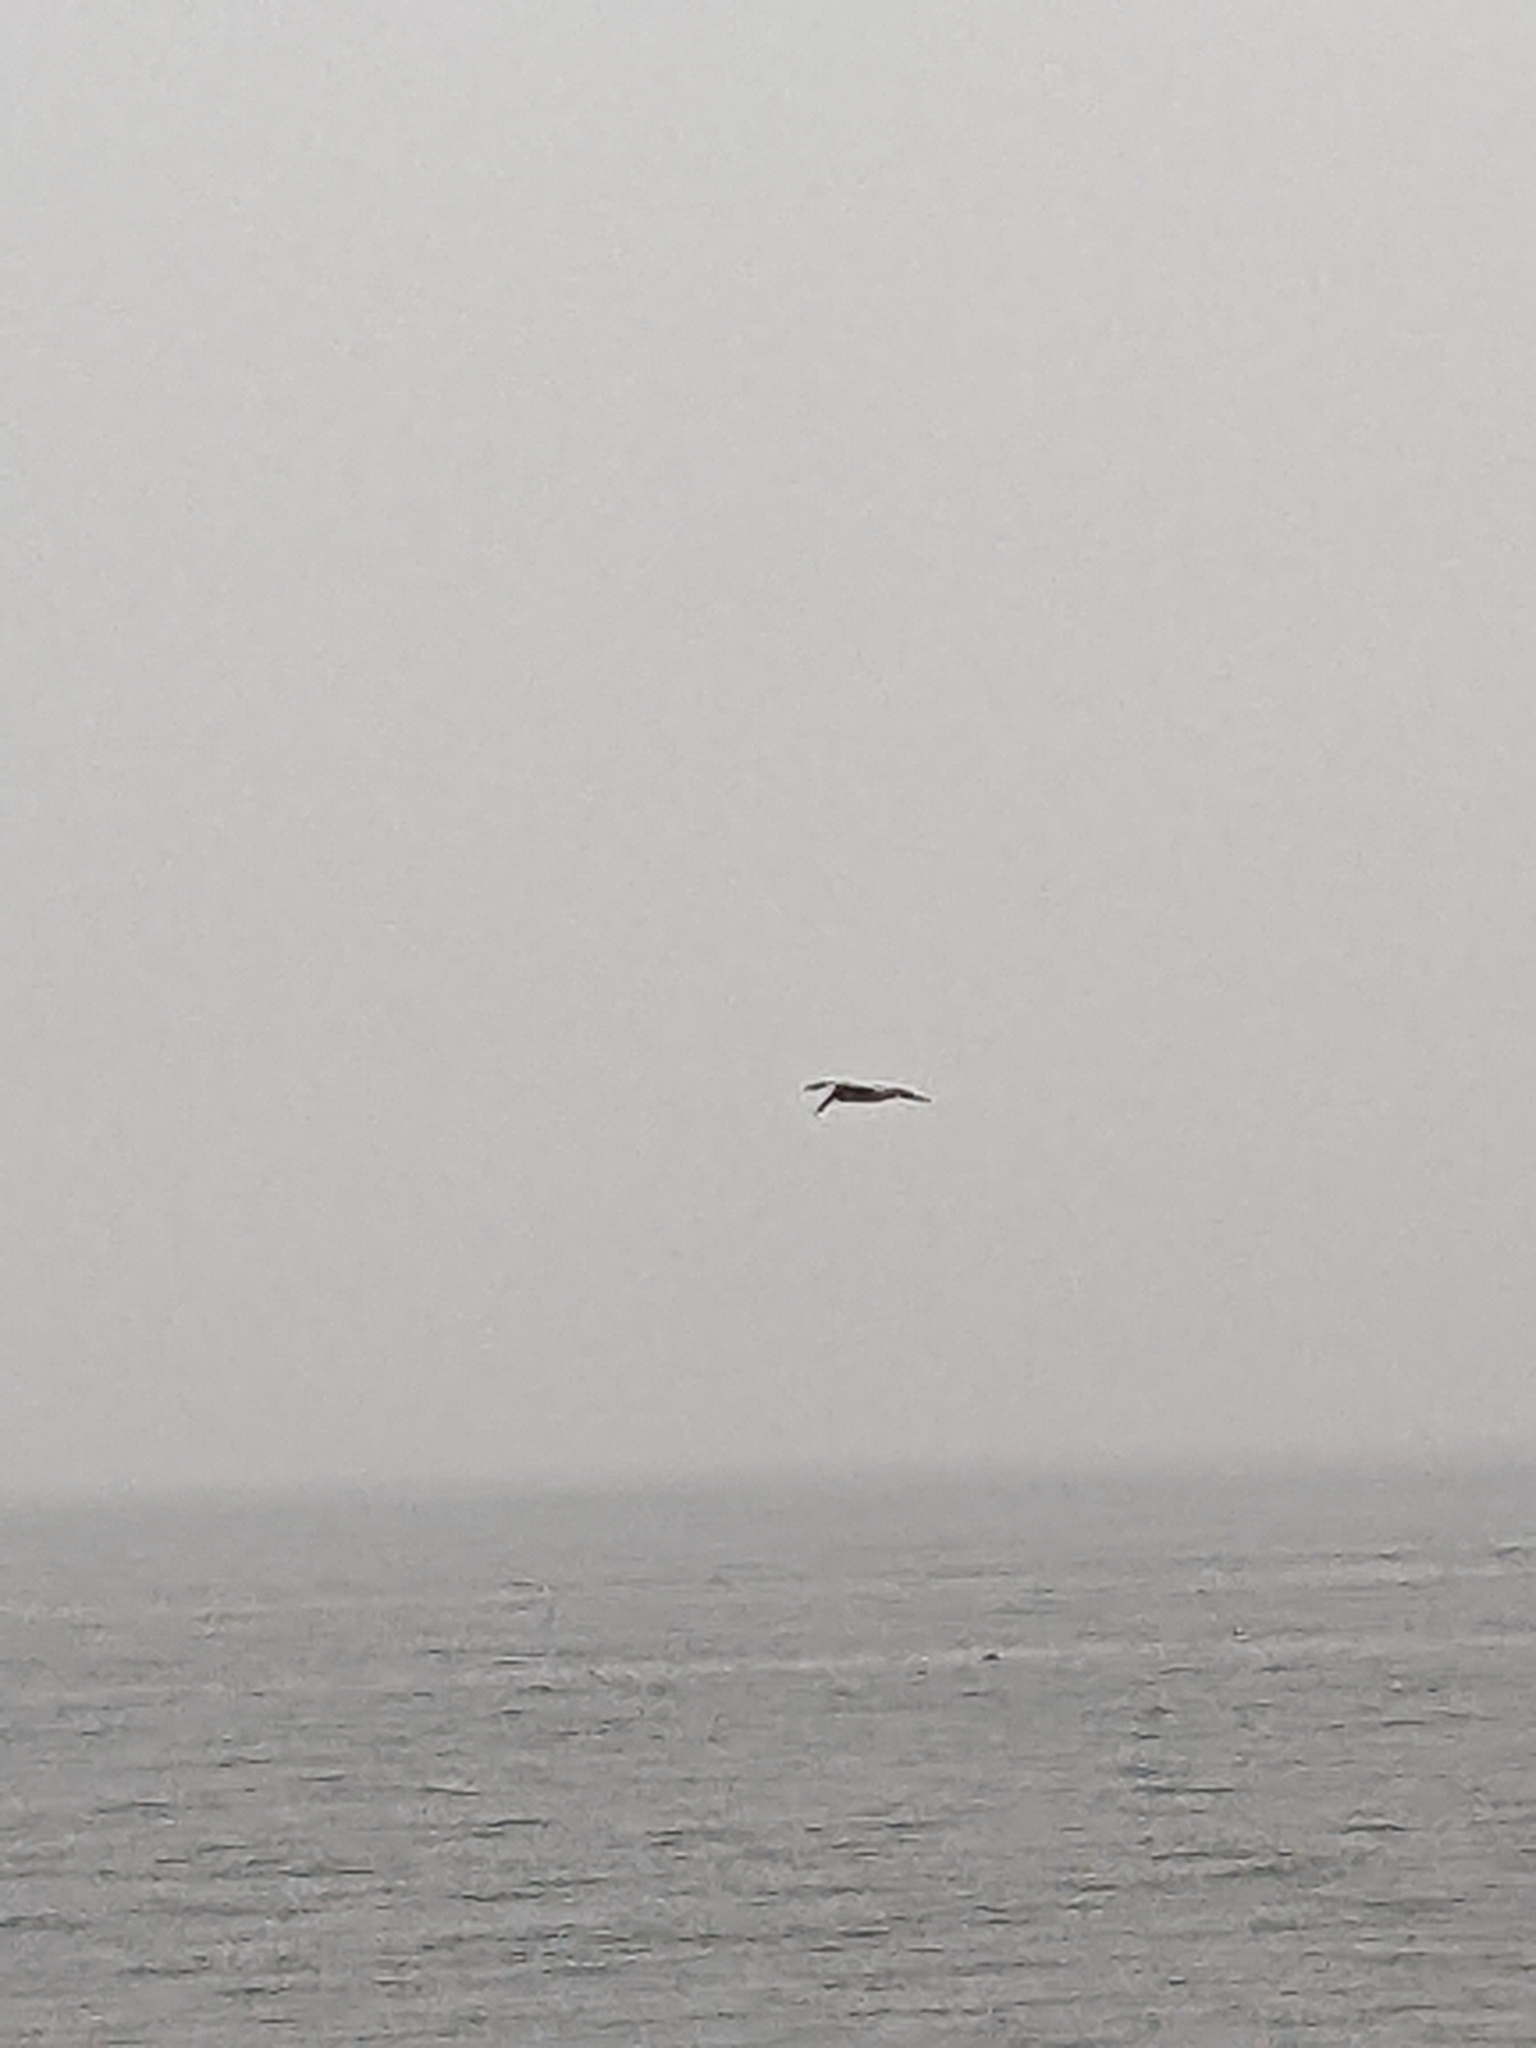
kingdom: Animalia
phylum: Chordata
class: Aves
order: Pelecaniformes
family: Pelecanidae
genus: Pelecanus
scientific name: Pelecanus occidentalis
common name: Brown pelican
